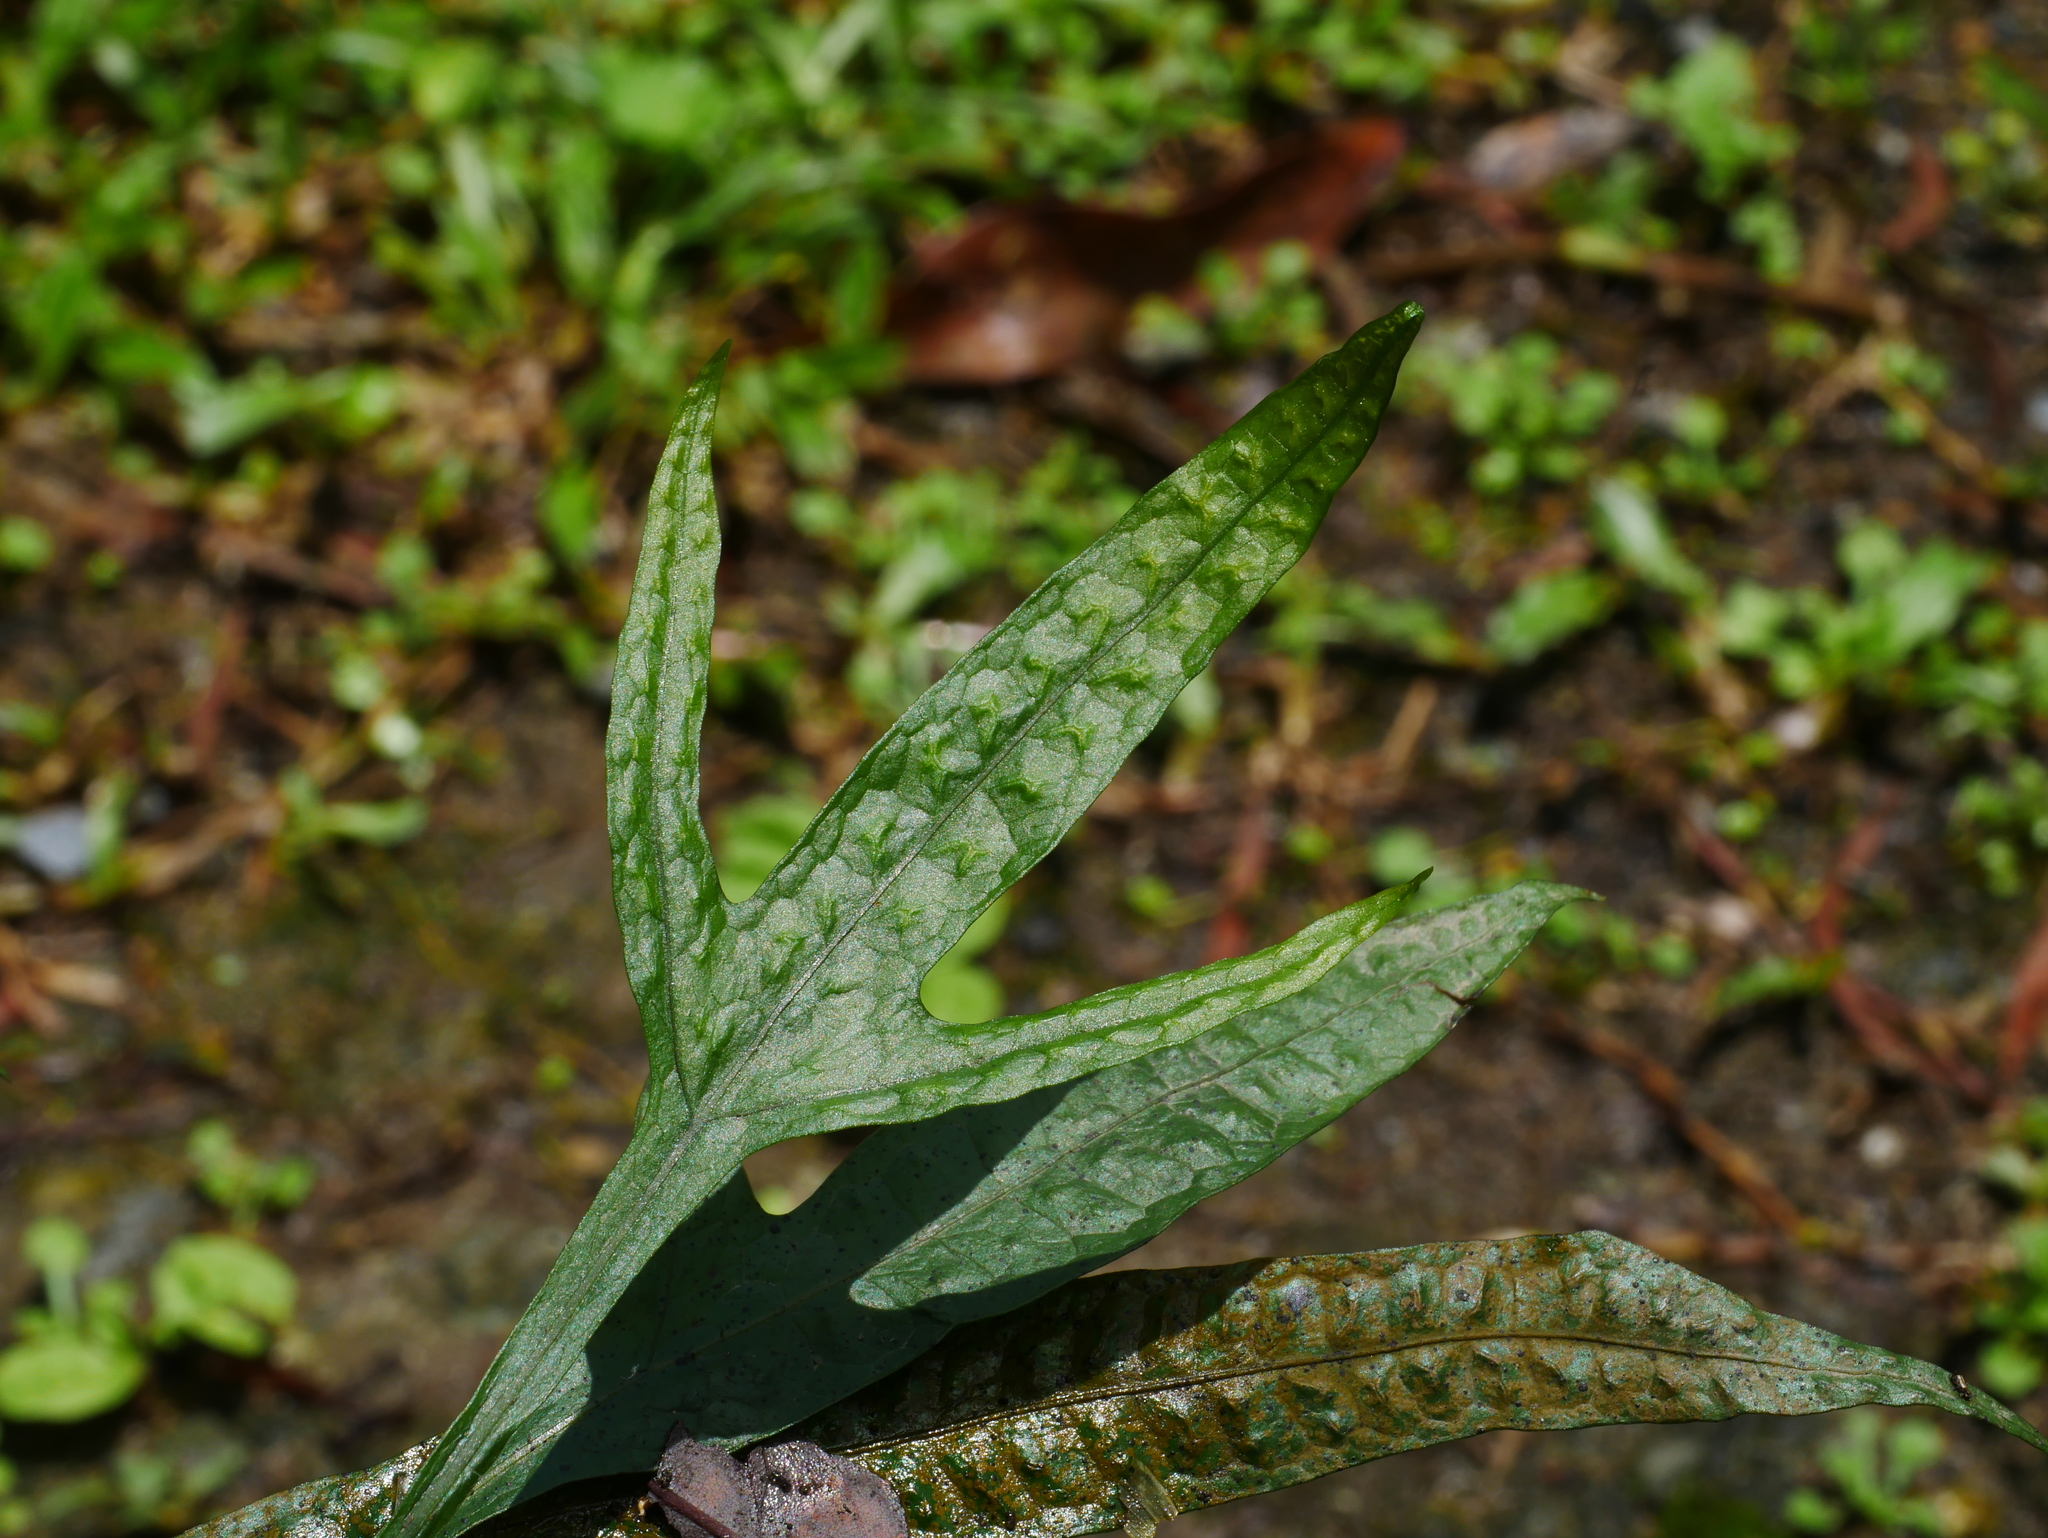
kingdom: Plantae
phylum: Tracheophyta
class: Polypodiopsida
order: Polypodiales
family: Polypodiaceae
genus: Leptochilus
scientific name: Leptochilus pteropus
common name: Java fern
